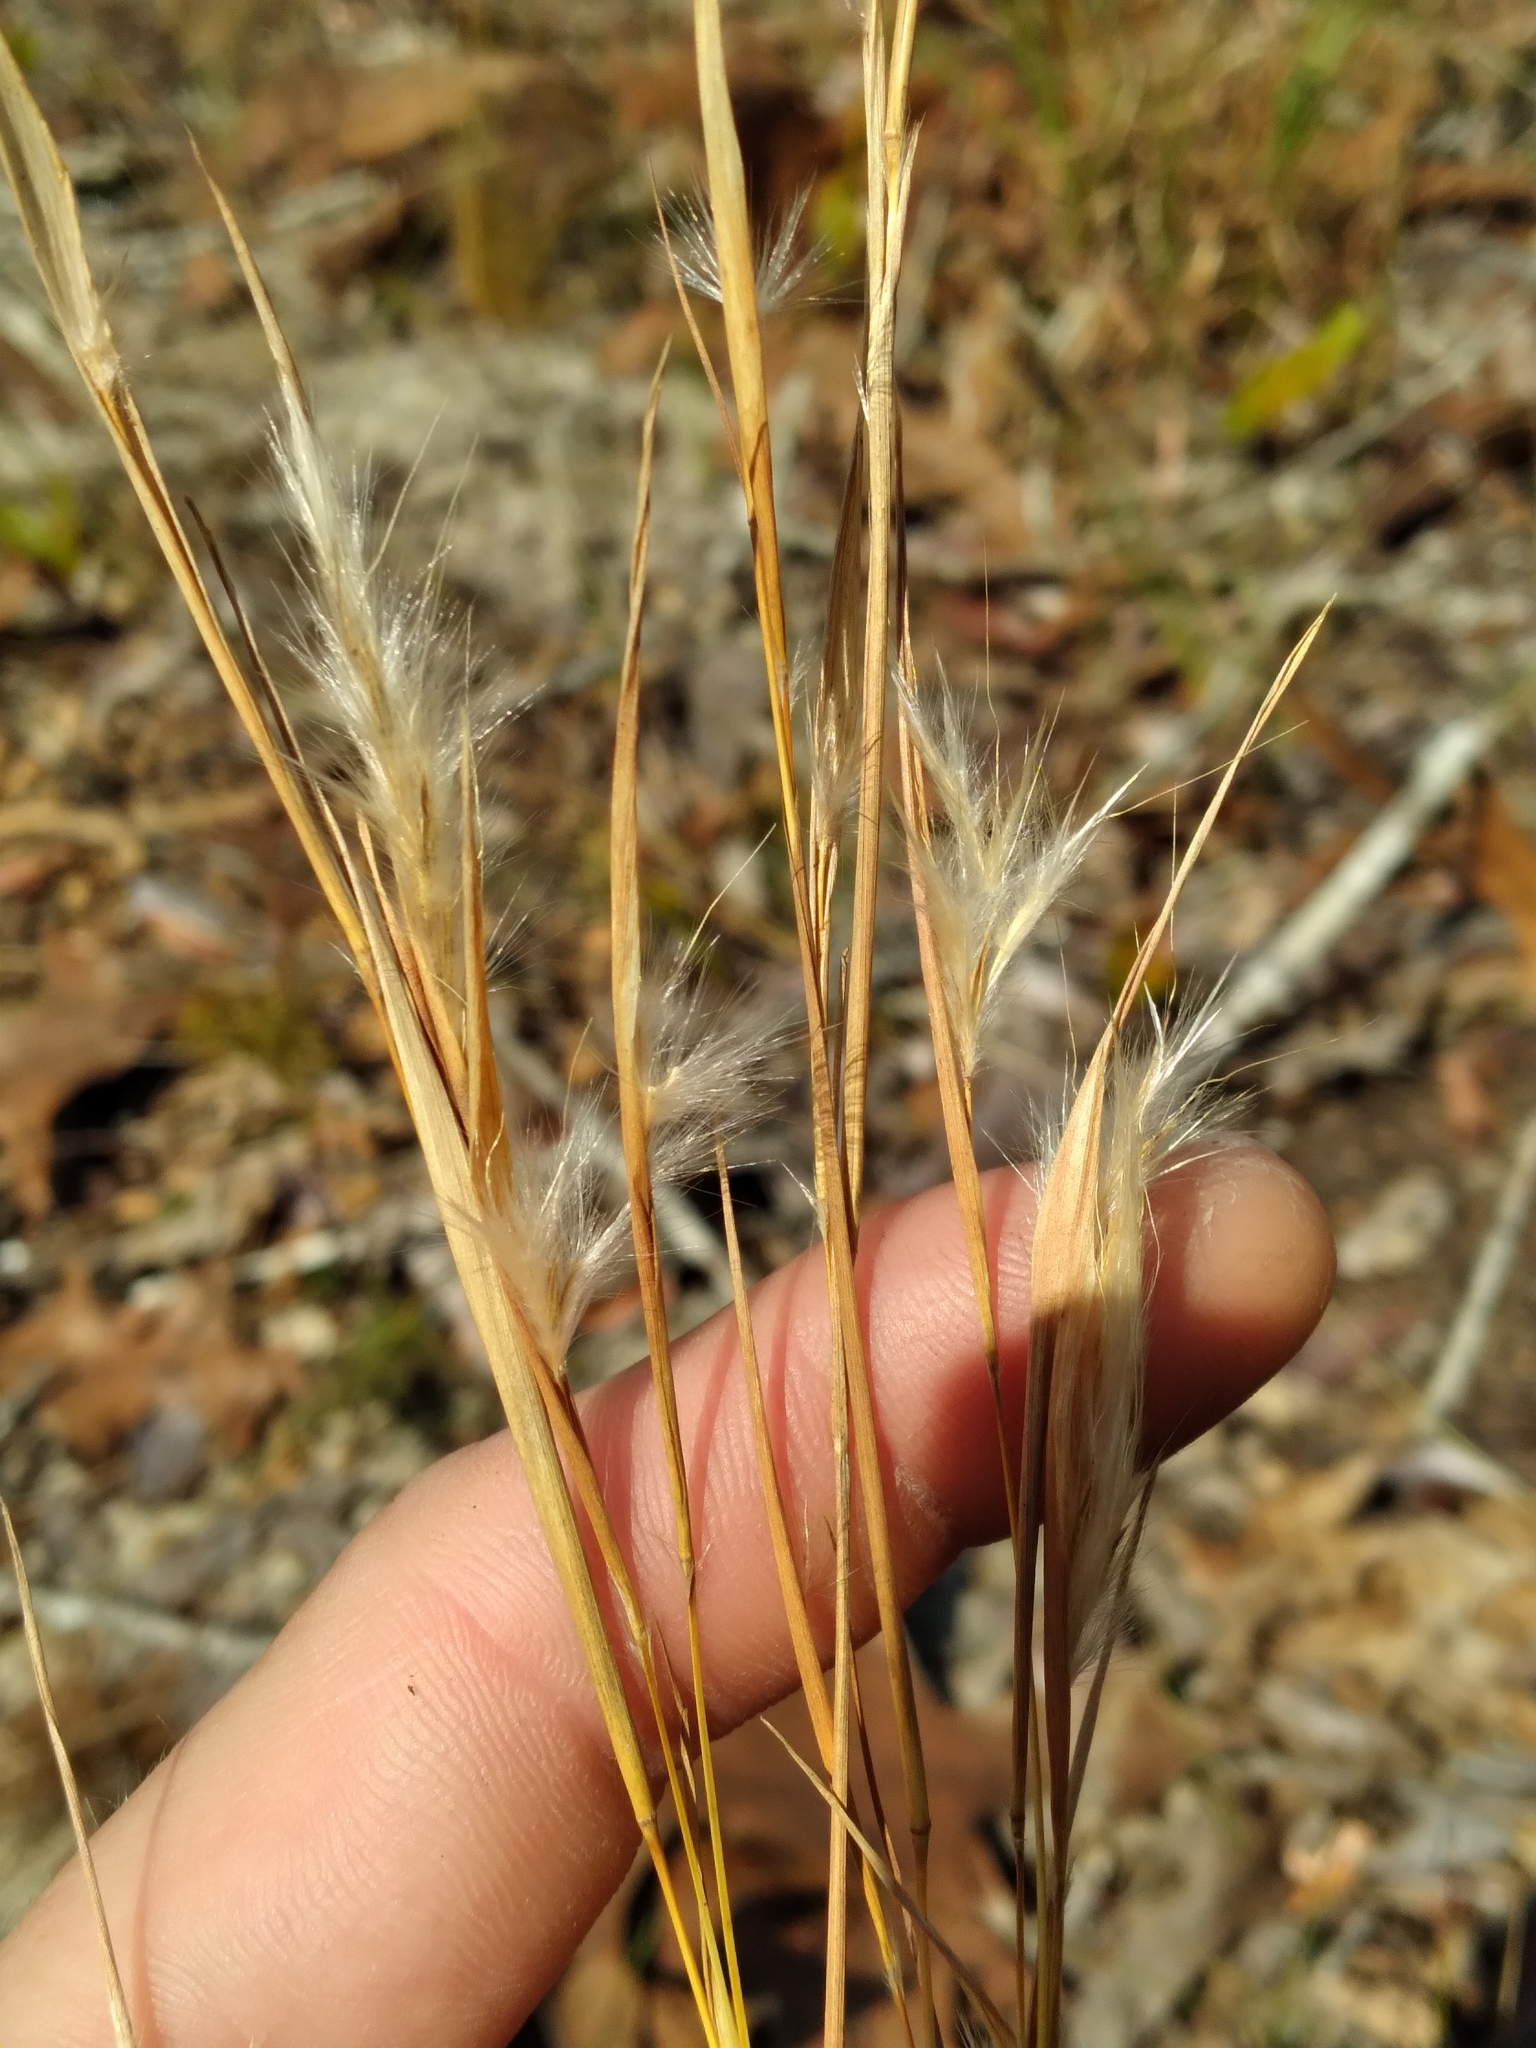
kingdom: Plantae
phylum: Tracheophyta
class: Liliopsida
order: Poales
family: Poaceae
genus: Andropogon
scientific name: Andropogon tracyi
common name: Tracy's bluestem
